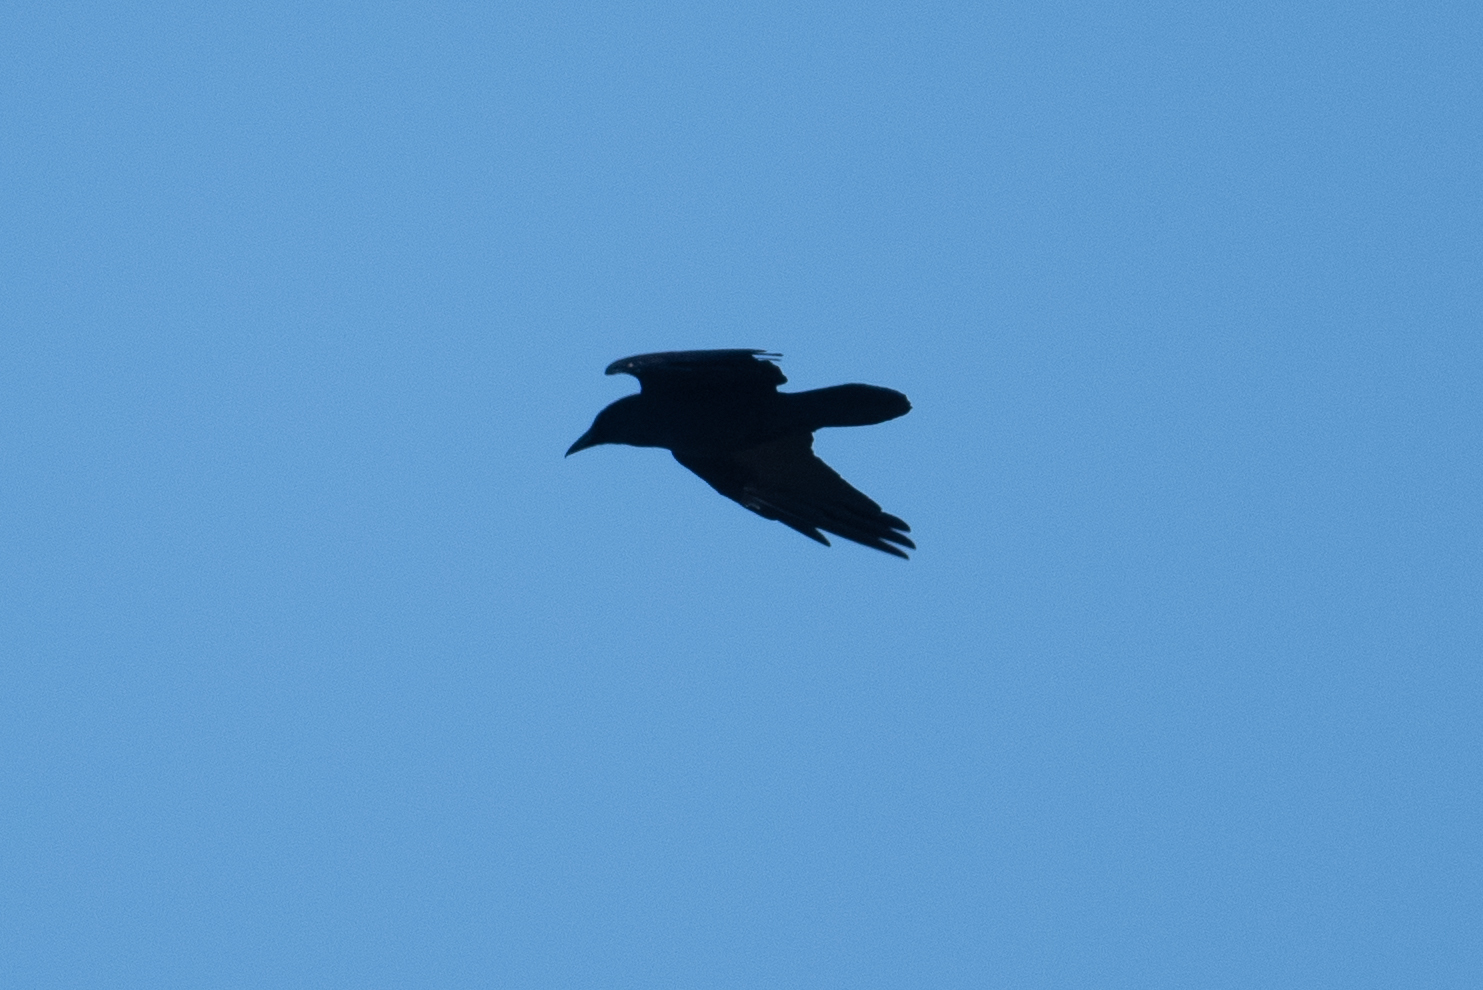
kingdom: Animalia
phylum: Chordata
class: Aves
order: Passeriformes
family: Corvidae
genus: Corvus
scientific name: Corvus corax
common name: Common raven
